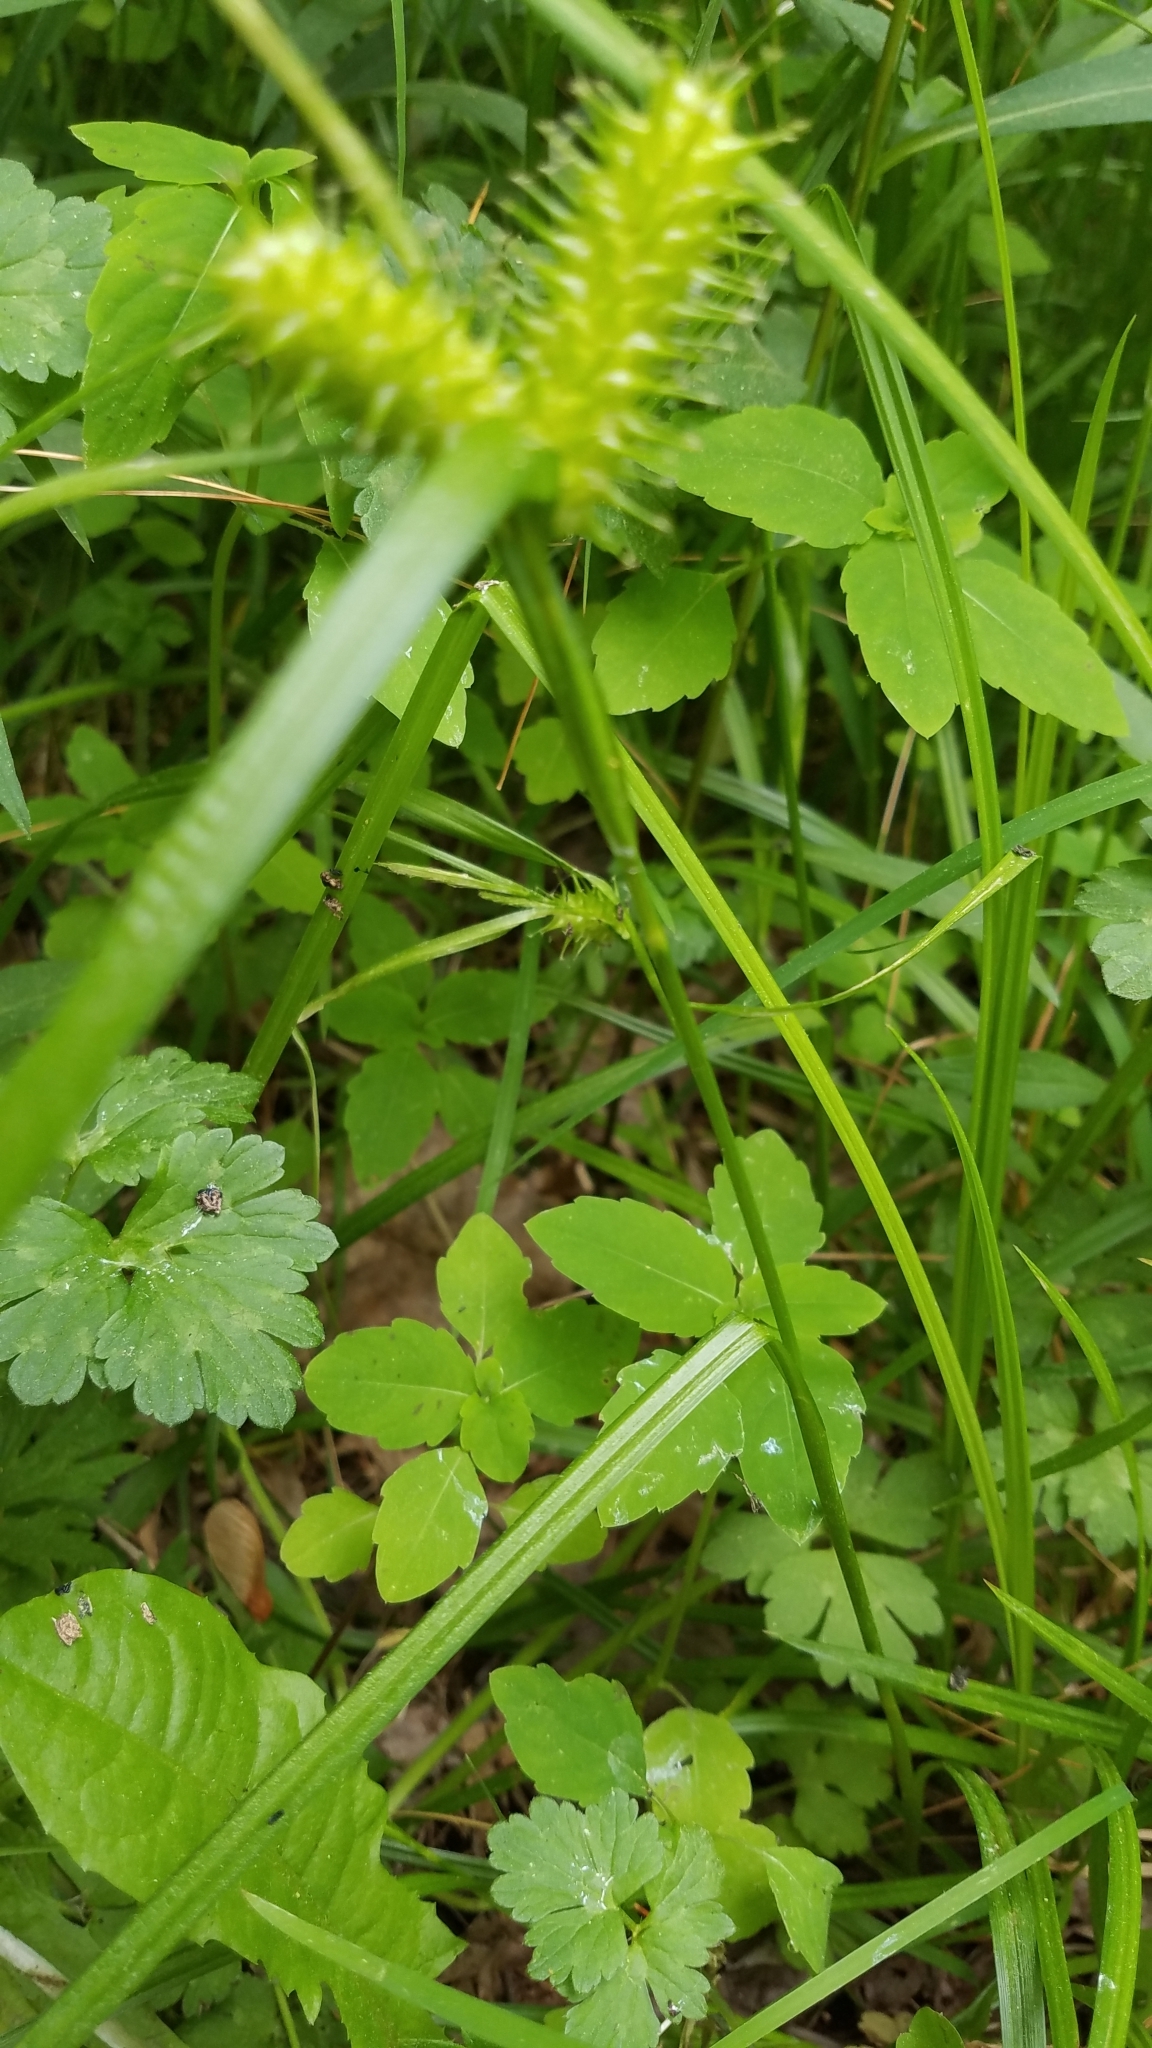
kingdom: Plantae
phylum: Tracheophyta
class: Liliopsida
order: Poales
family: Cyperaceae
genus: Carex
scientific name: Carex lurida
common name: Sallow sedge
